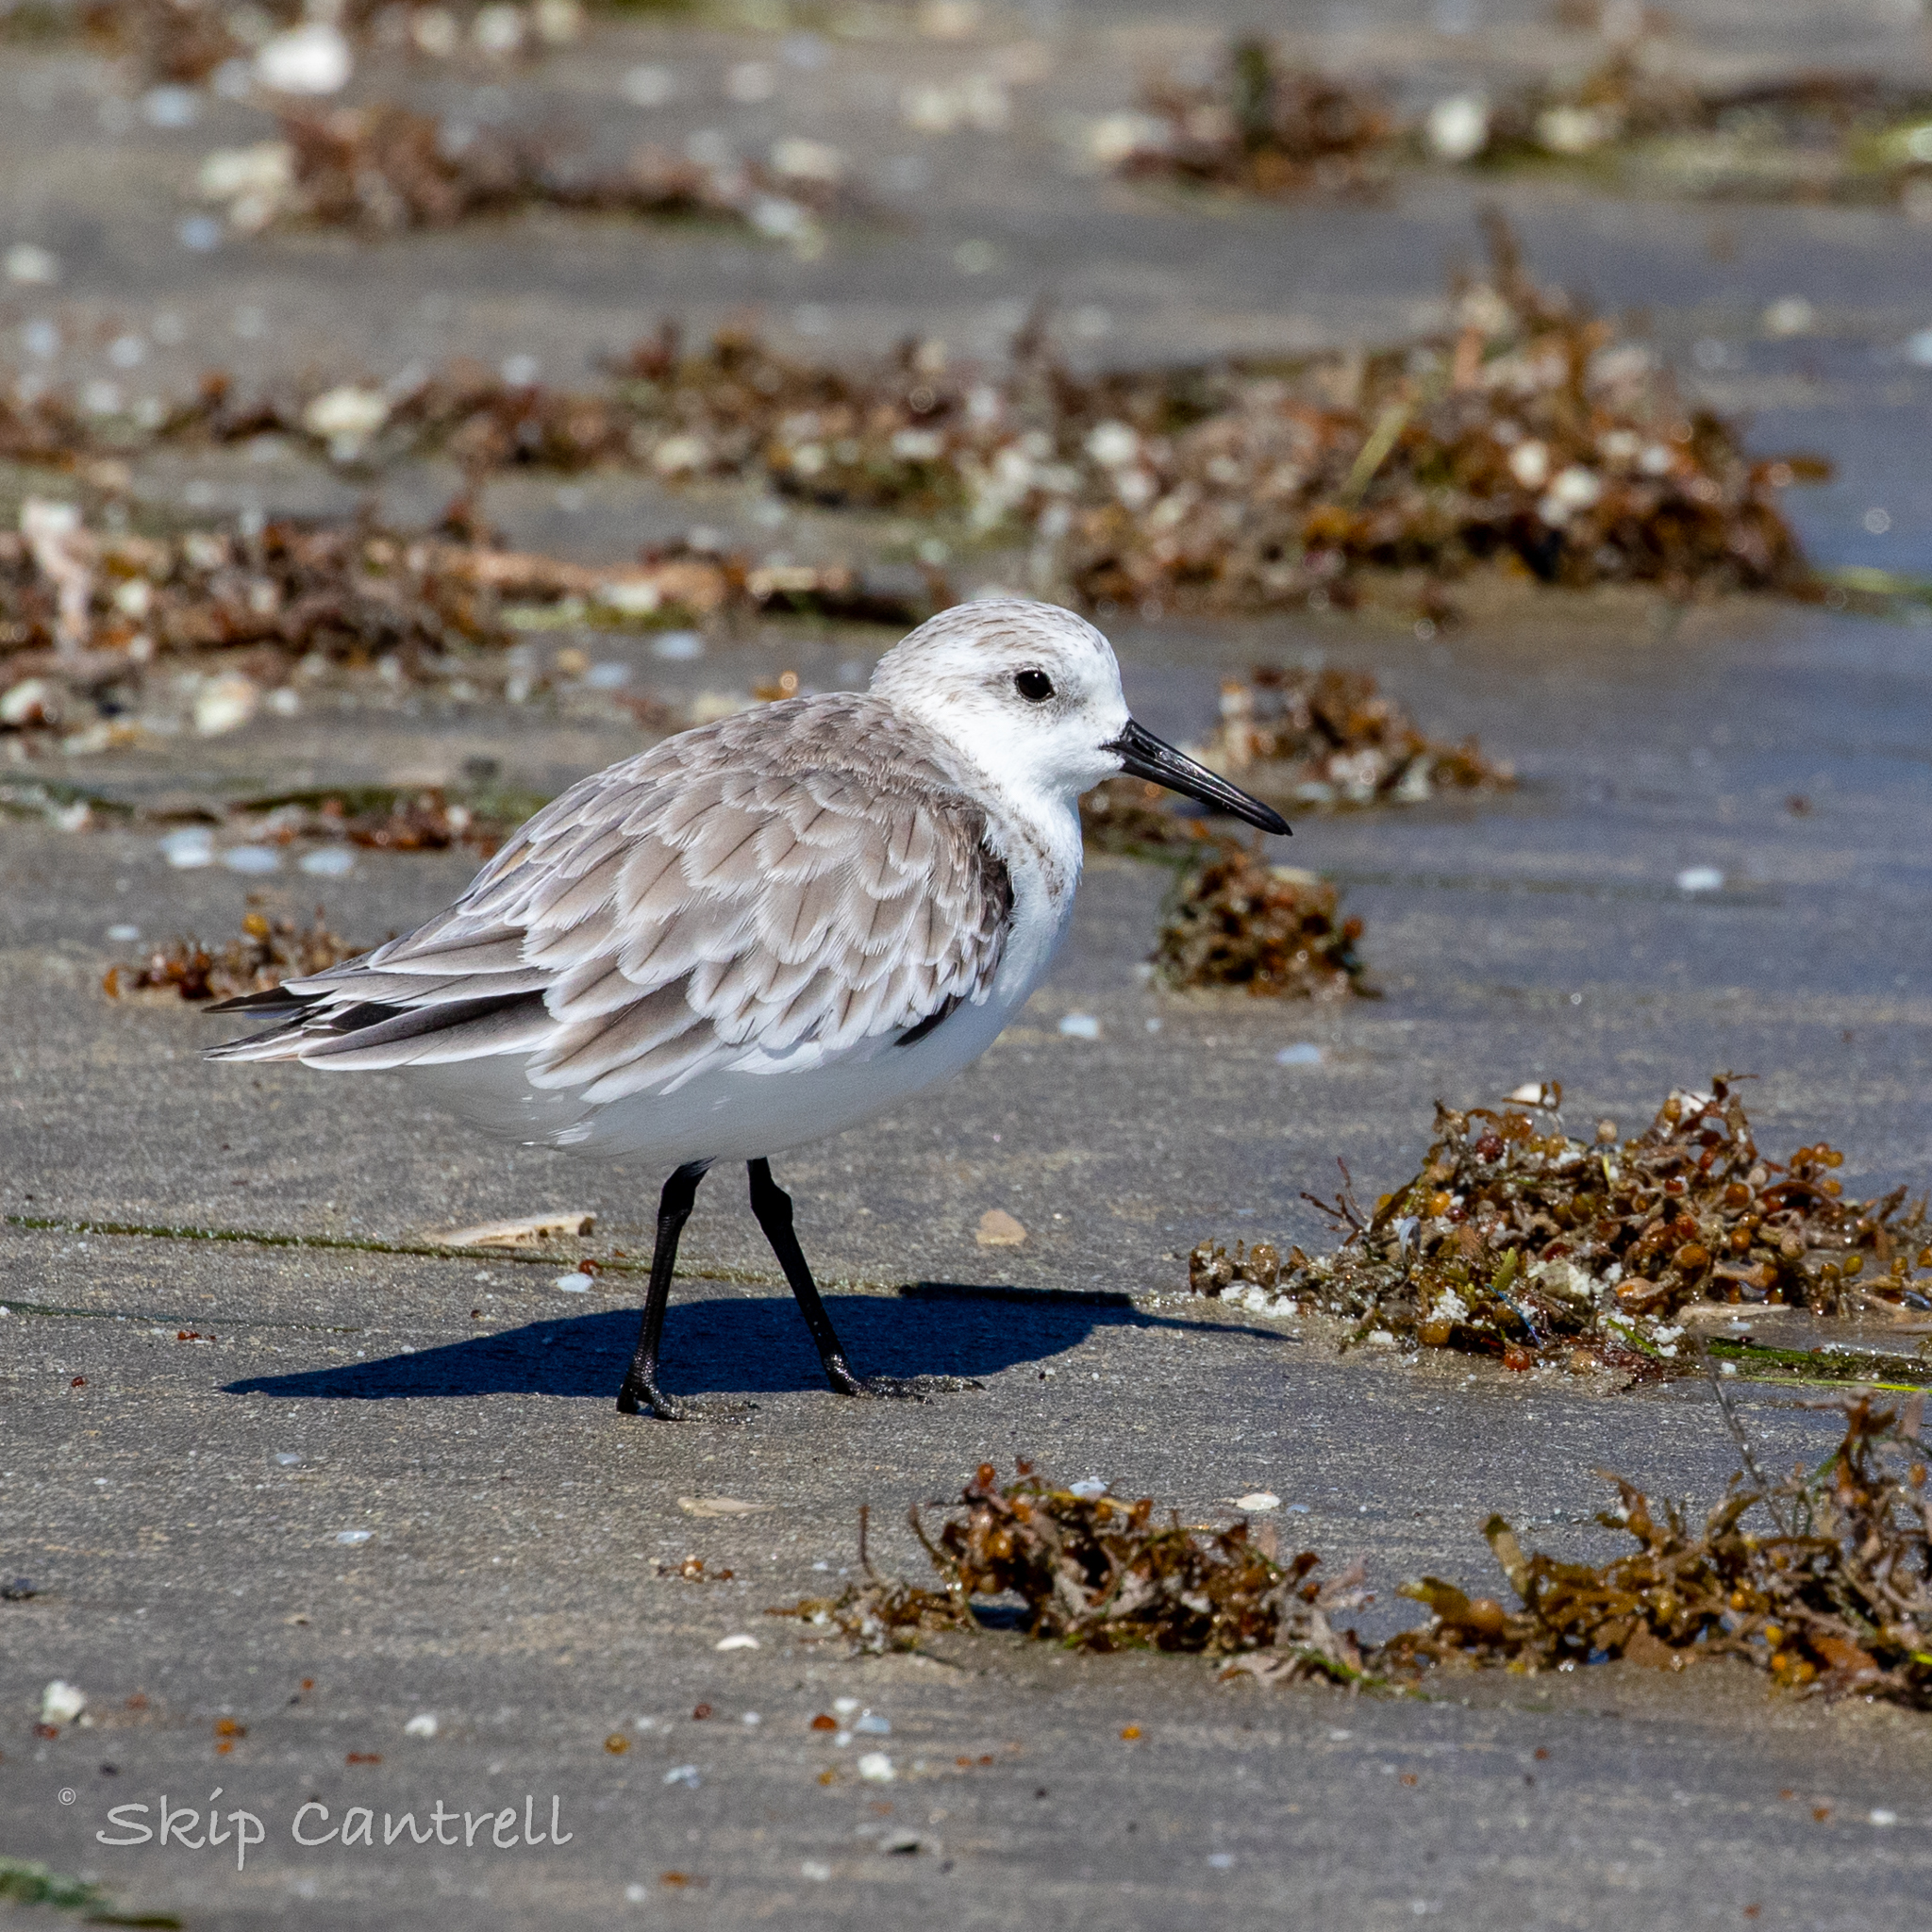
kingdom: Animalia
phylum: Chordata
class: Aves
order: Charadriiformes
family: Scolopacidae
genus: Calidris
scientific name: Calidris alba
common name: Sanderling
